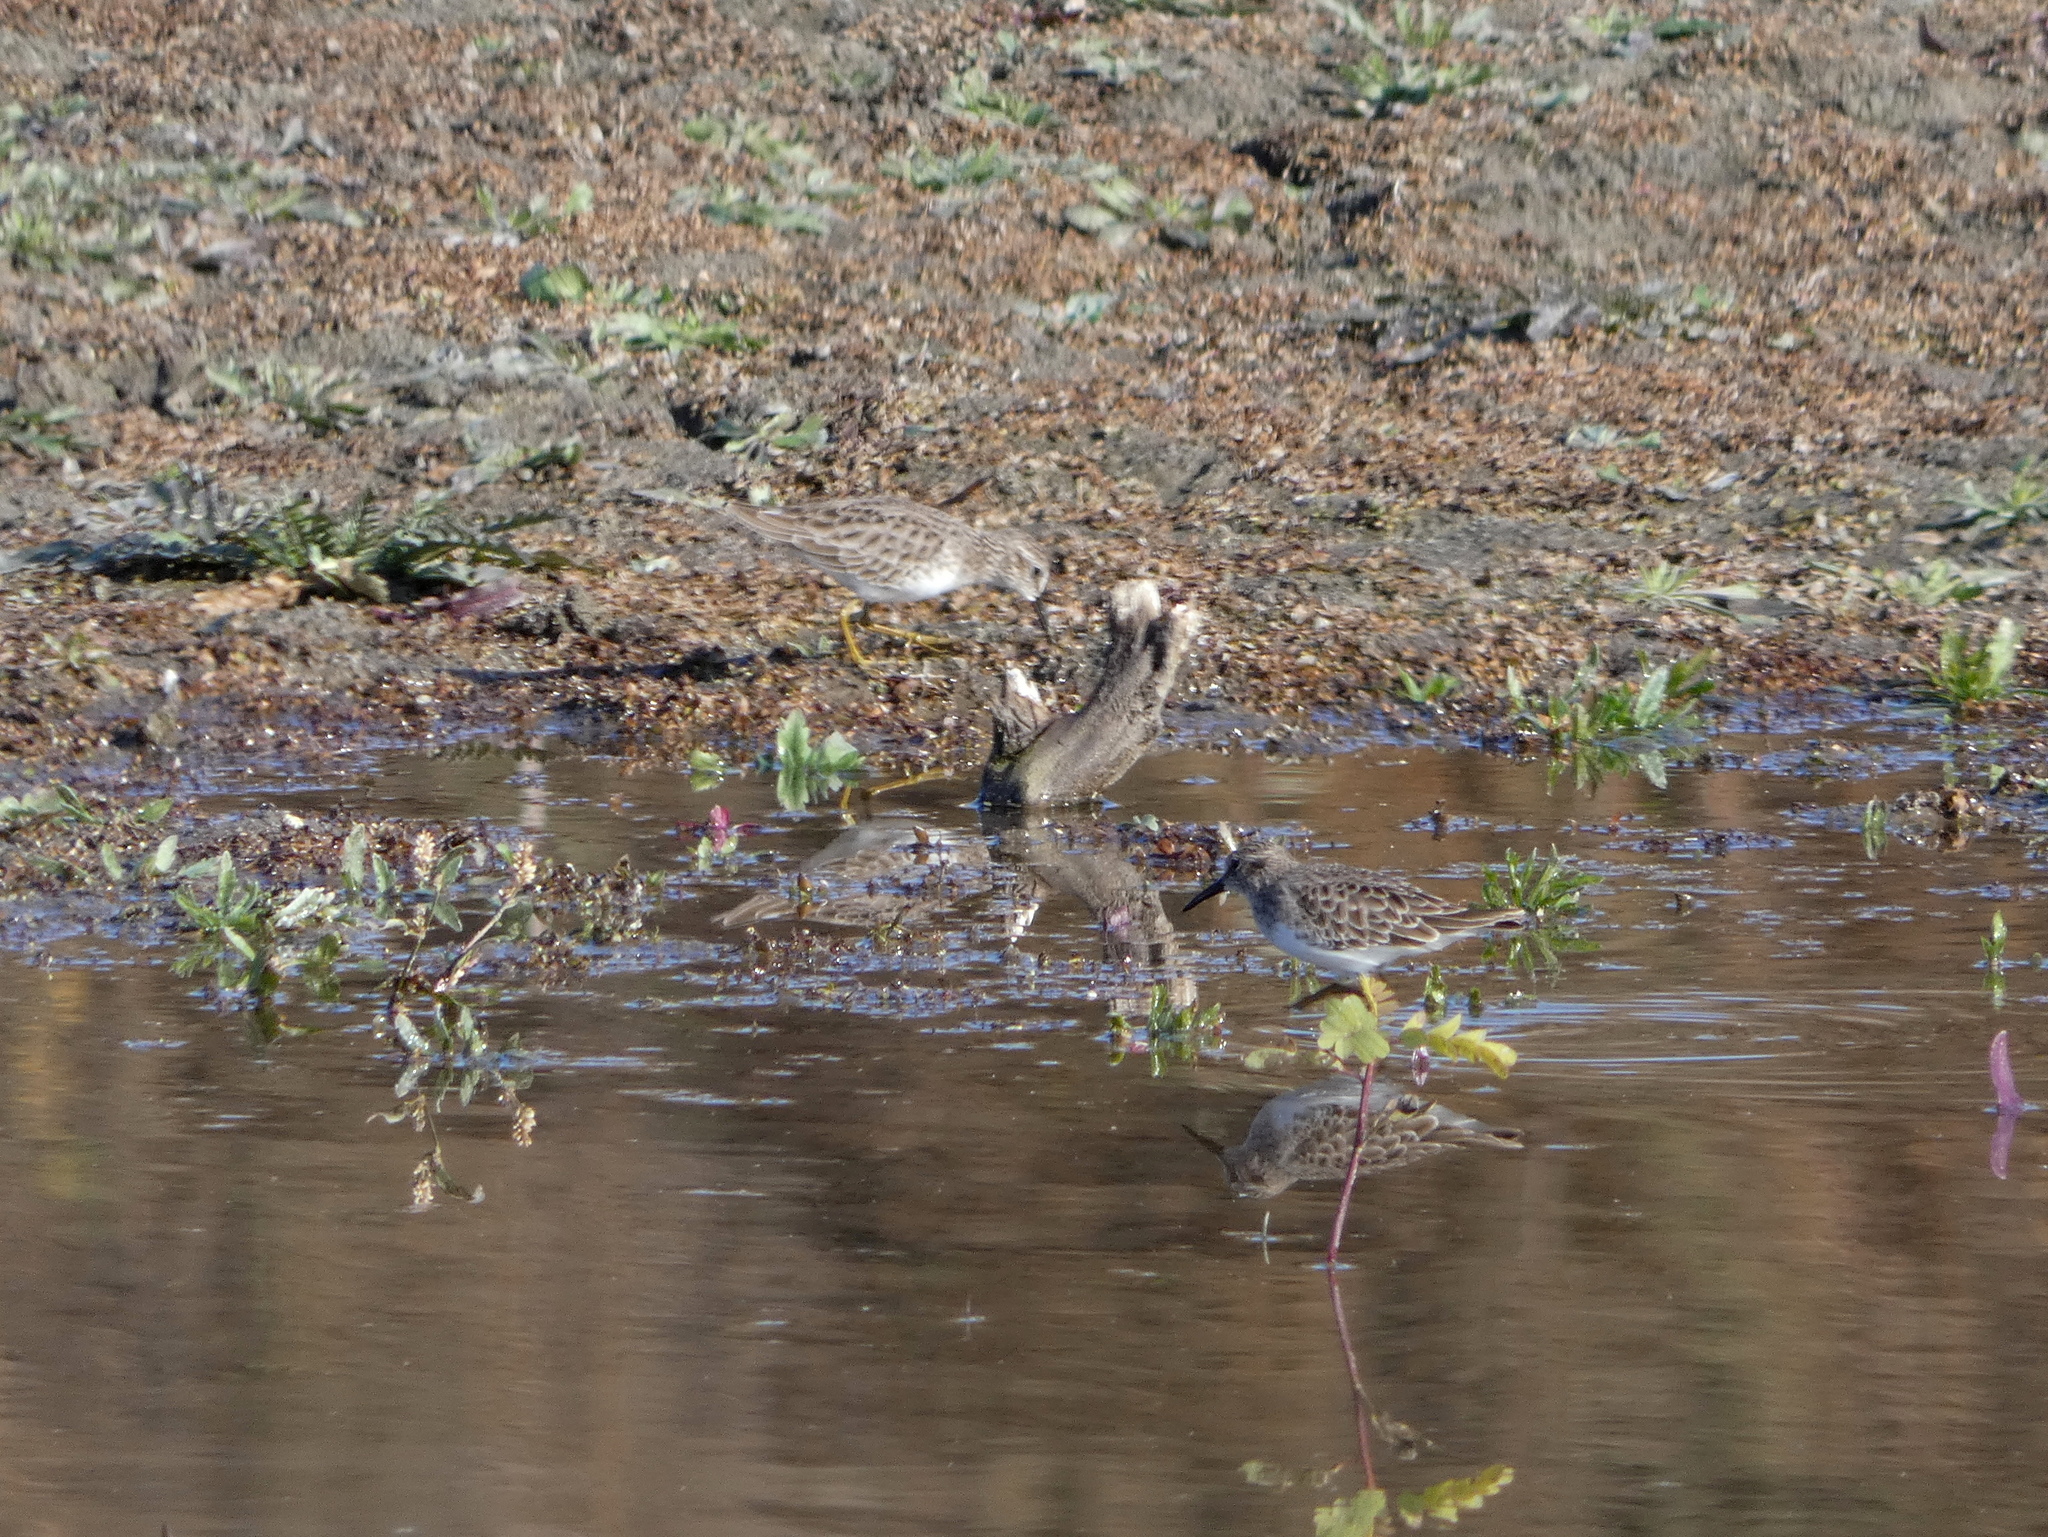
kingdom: Animalia
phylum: Chordata
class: Aves
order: Charadriiformes
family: Scolopacidae
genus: Calidris
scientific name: Calidris minutilla
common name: Least sandpiper
